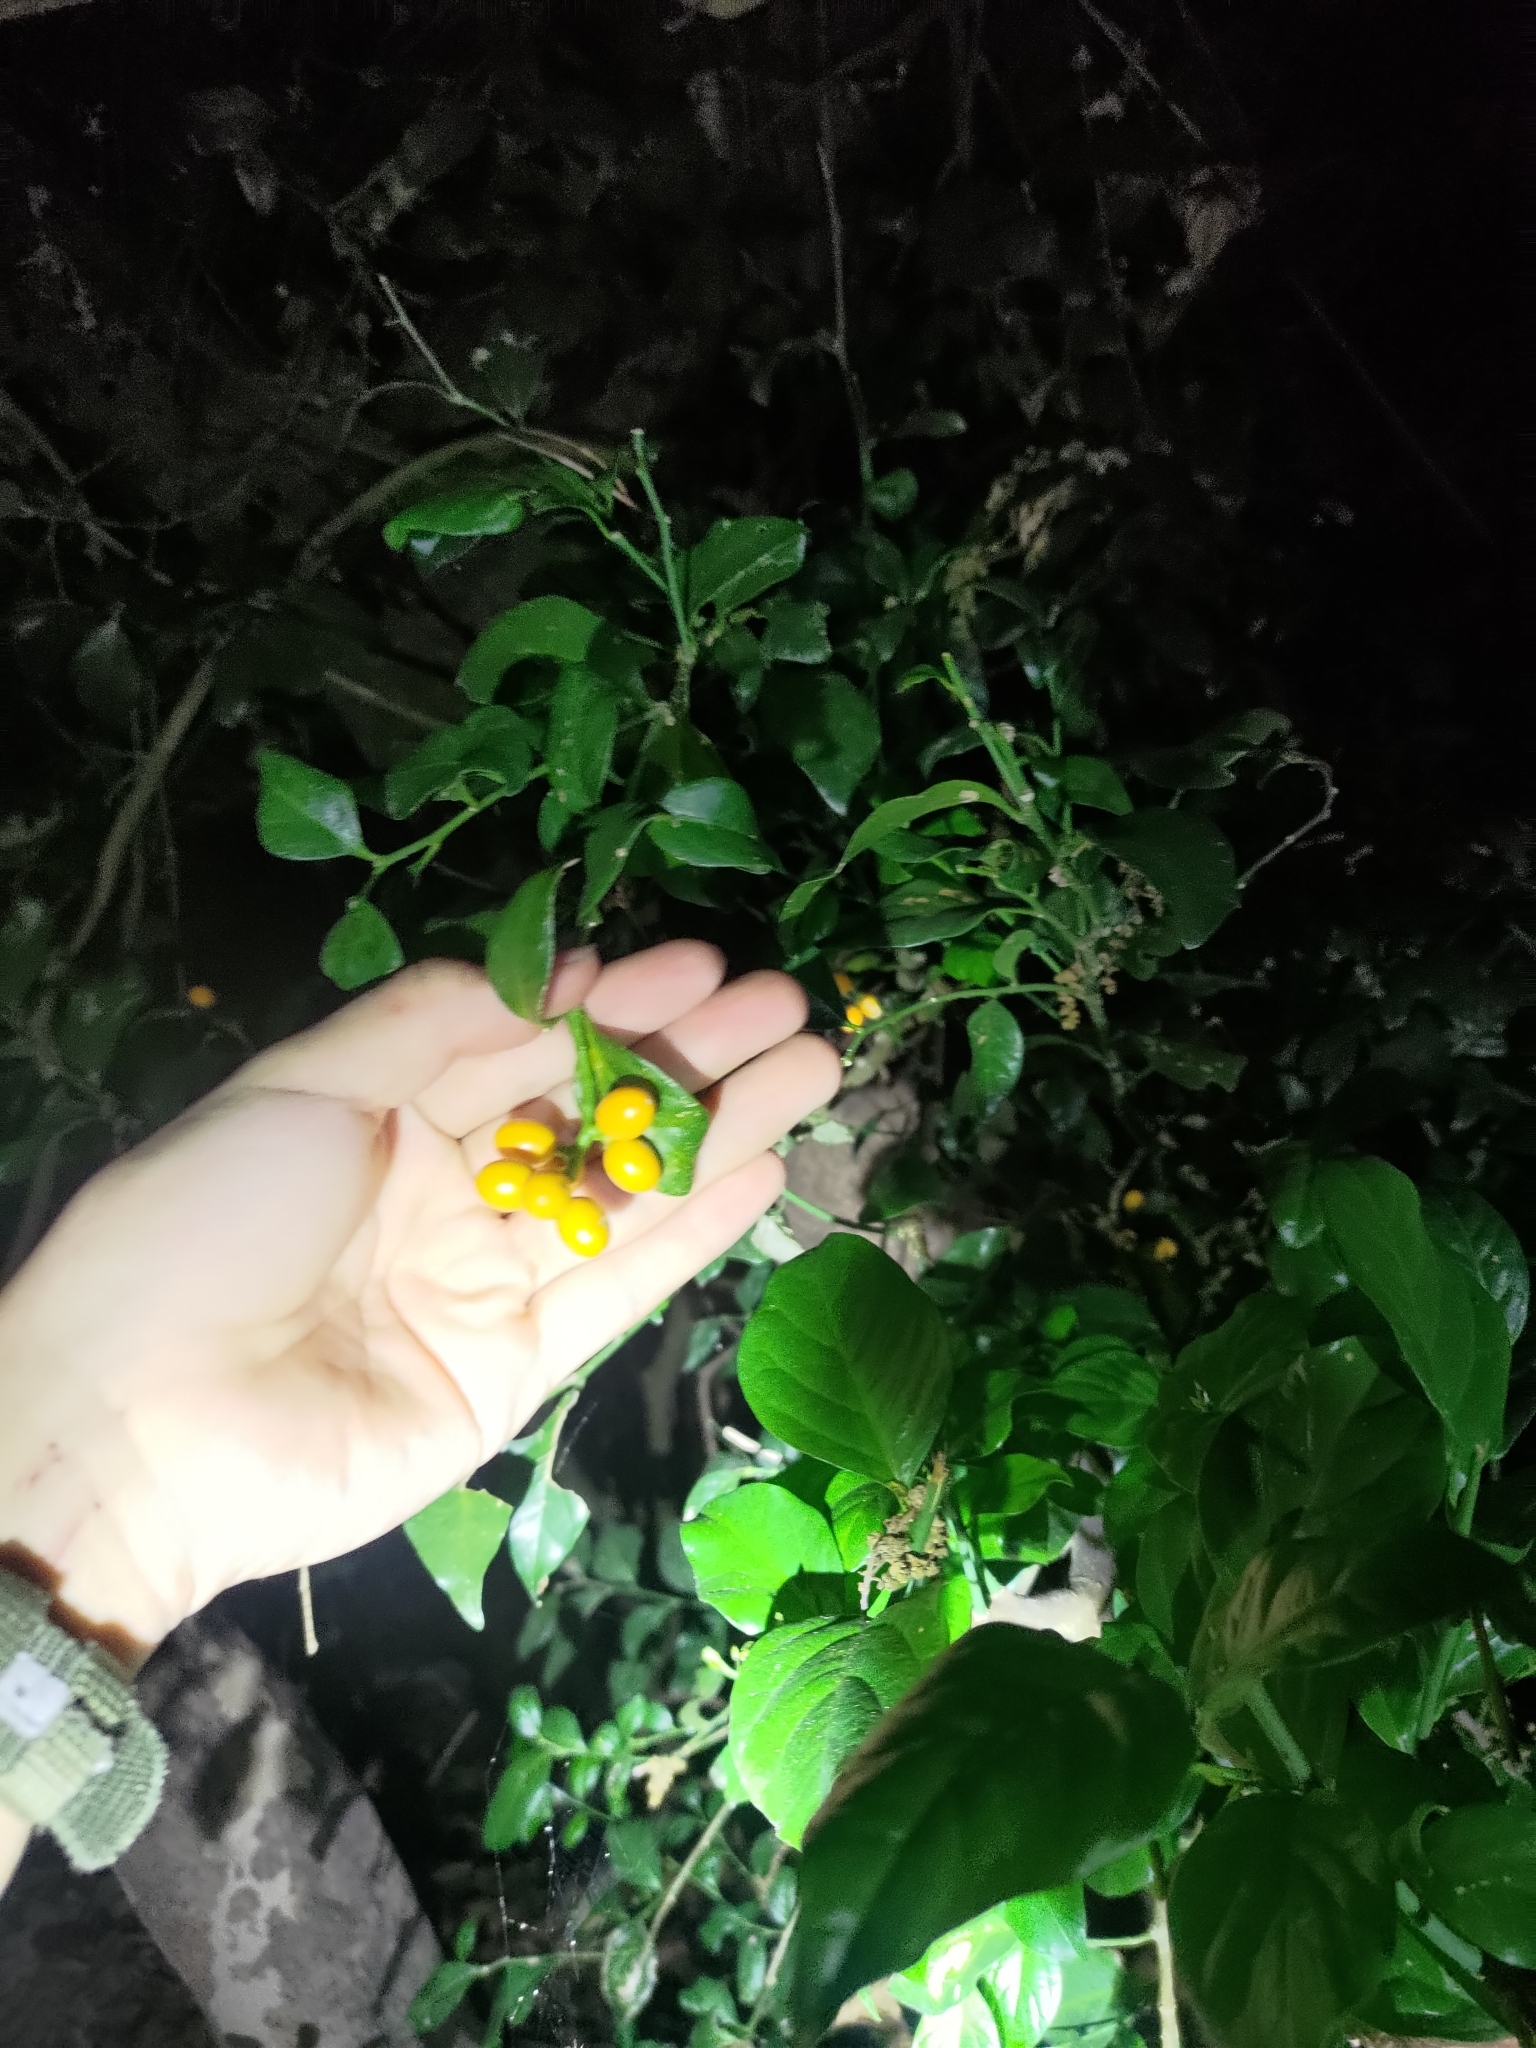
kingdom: Plantae
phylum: Tracheophyta
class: Magnoliopsida
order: Santalales
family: Opiliaceae
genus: Champereia
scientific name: Champereia manillana
